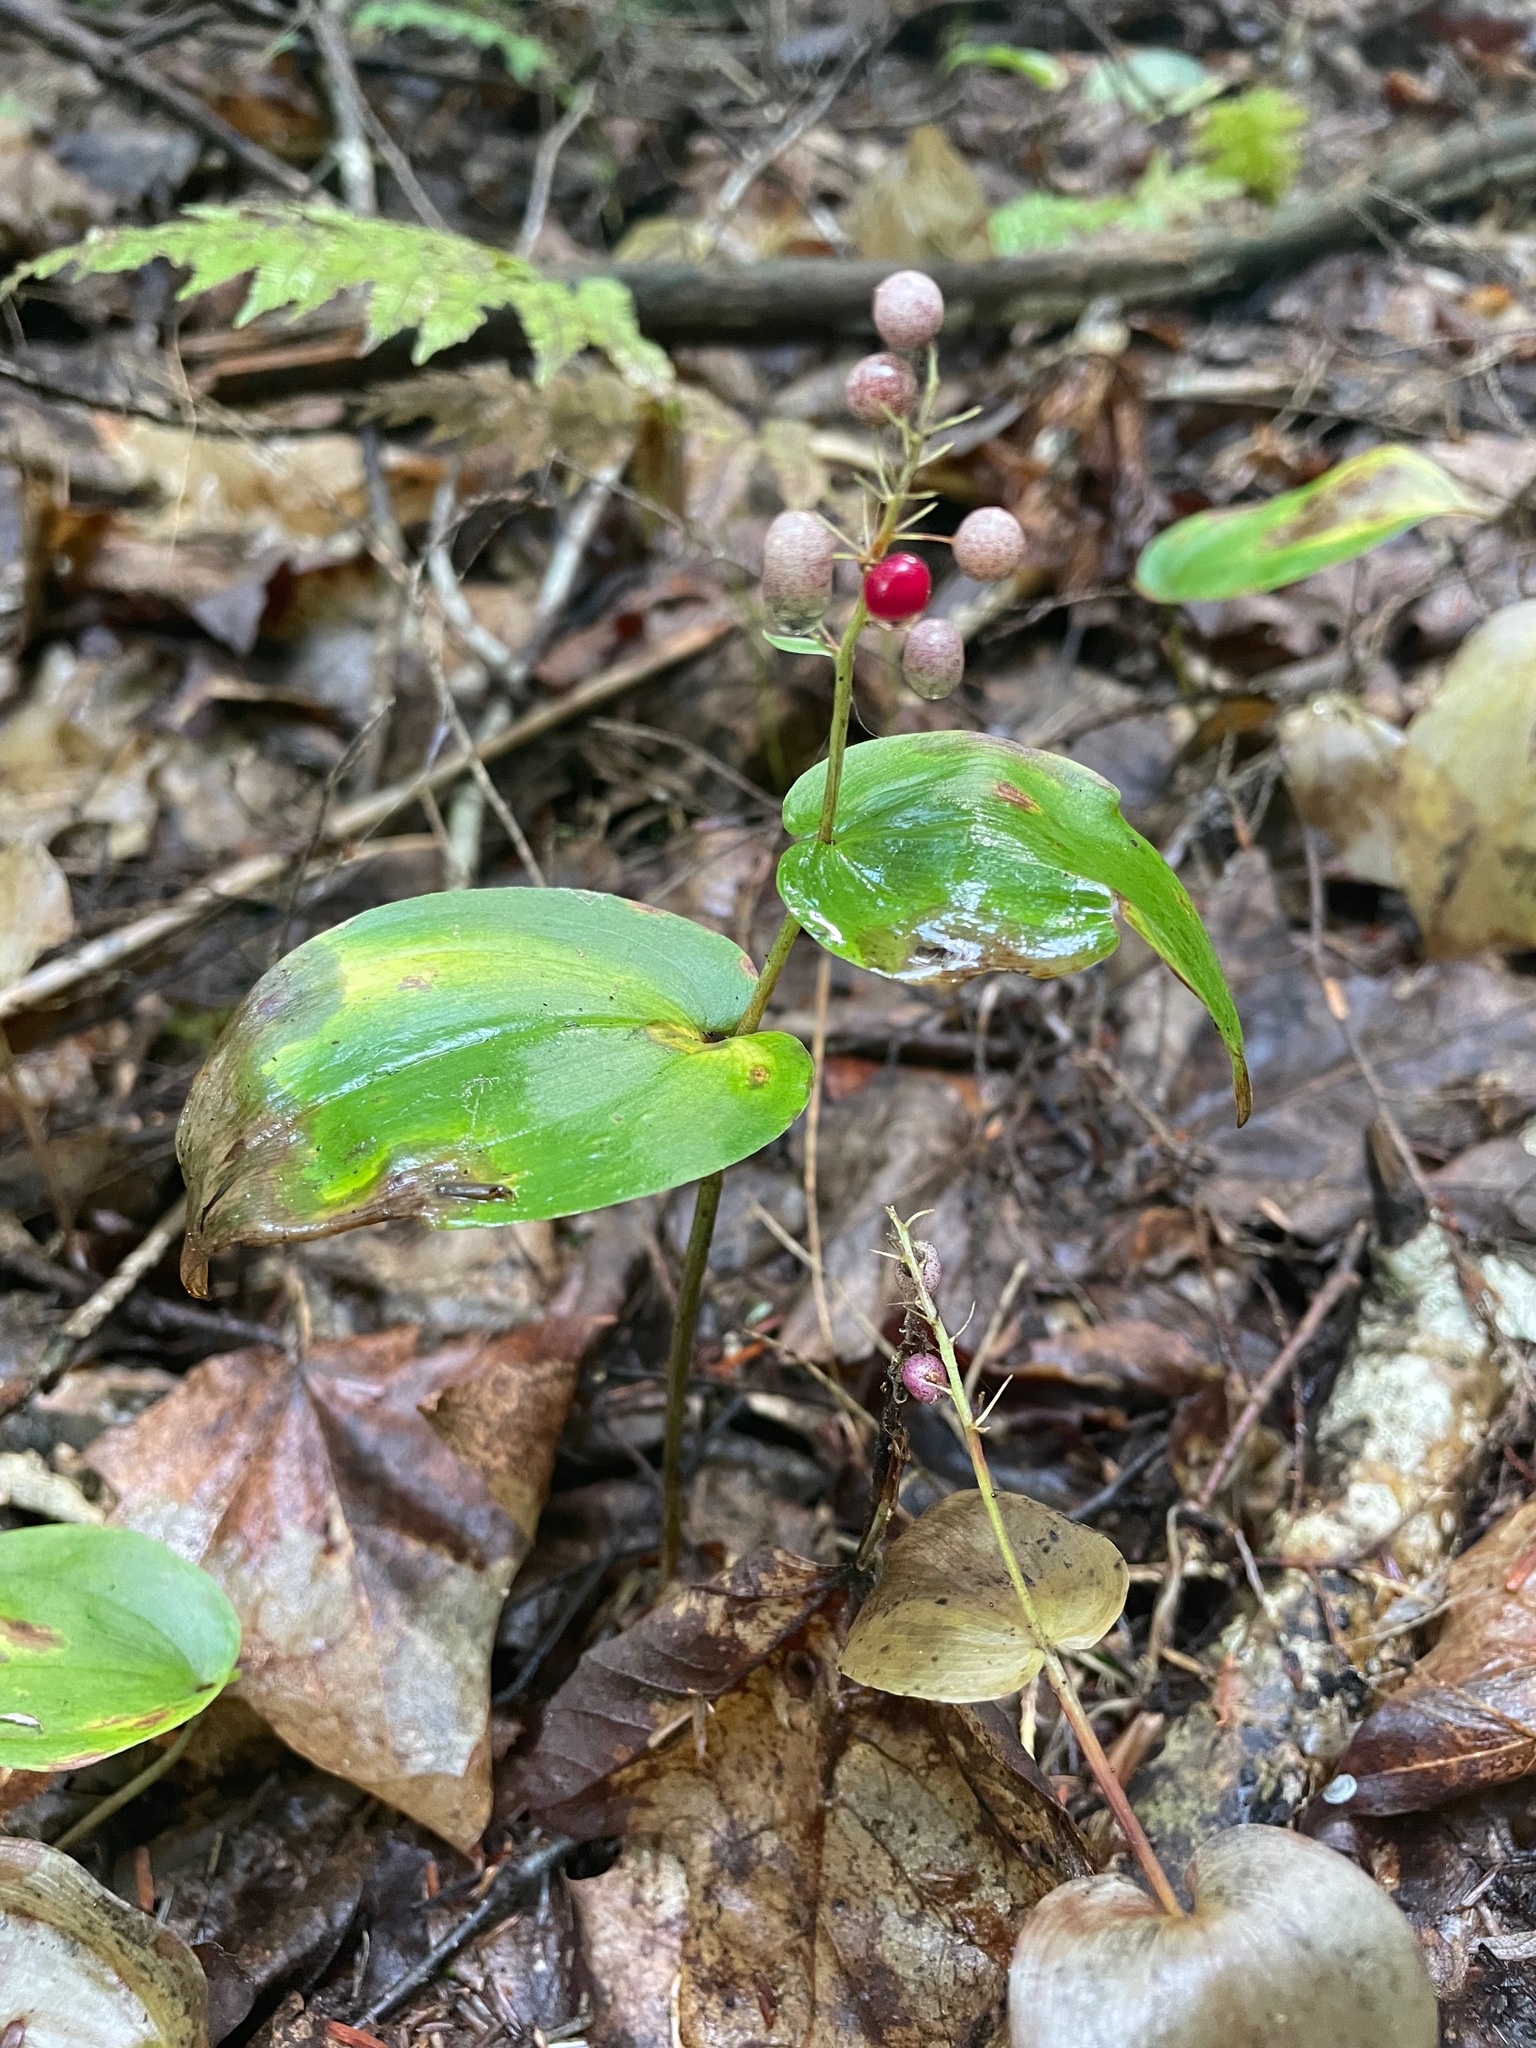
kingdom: Plantae
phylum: Tracheophyta
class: Liliopsida
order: Asparagales
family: Asparagaceae
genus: Maianthemum
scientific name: Maianthemum canadense
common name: False lily-of-the-valley
